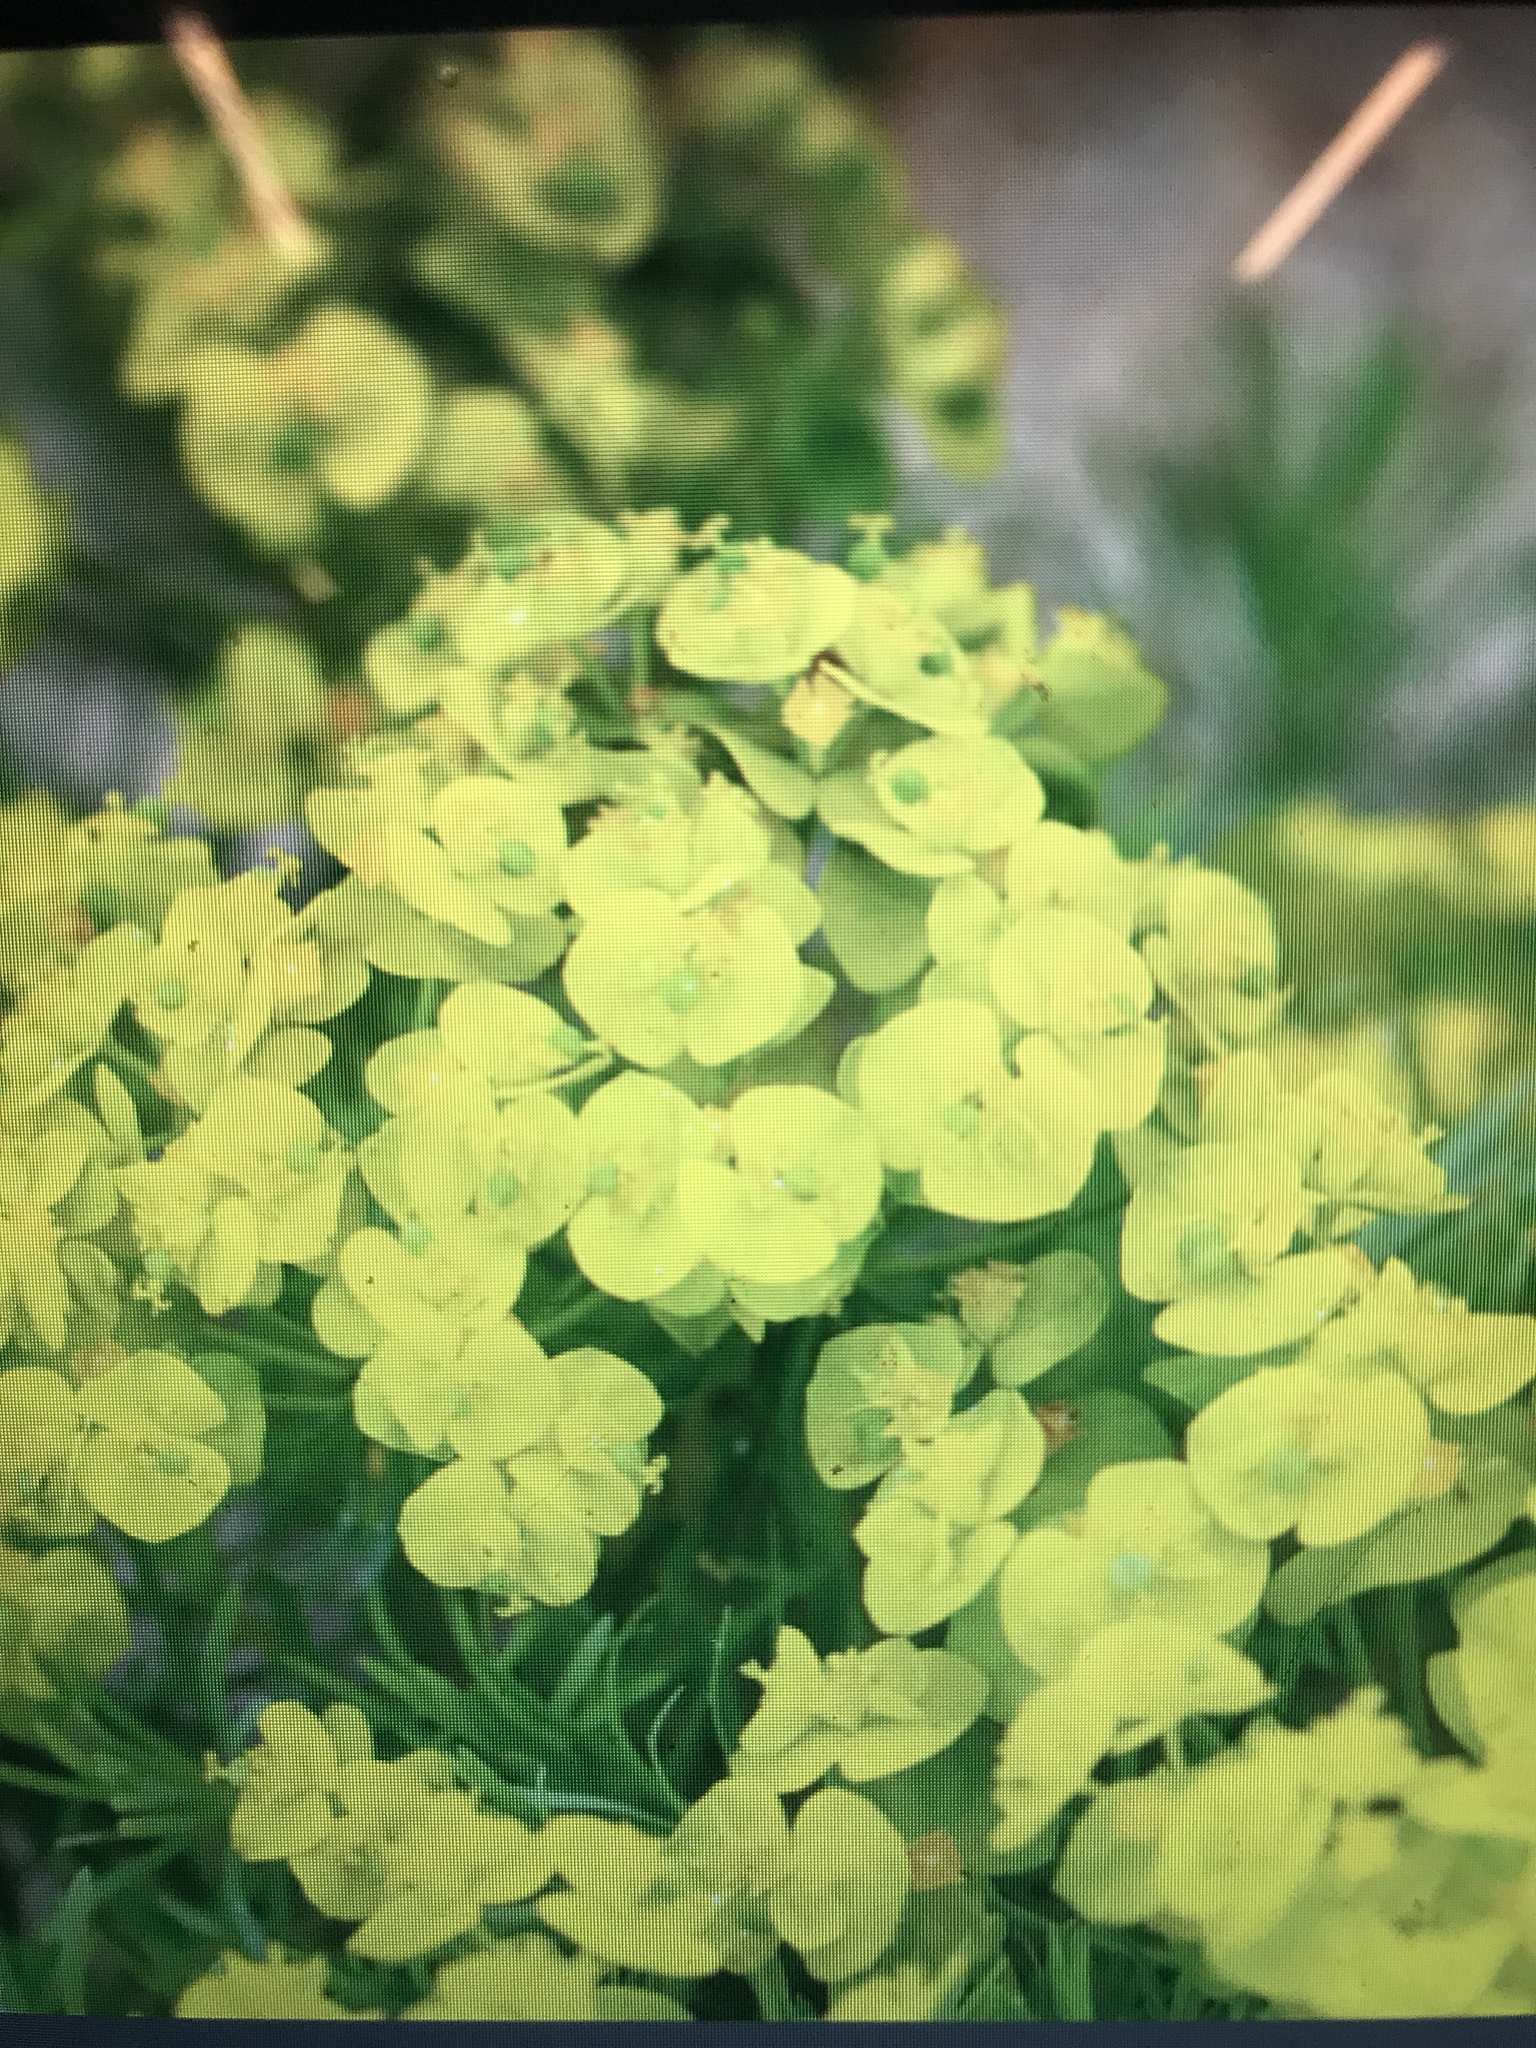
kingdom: Plantae
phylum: Tracheophyta
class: Magnoliopsida
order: Malpighiales
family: Euphorbiaceae
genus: Euphorbia
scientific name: Euphorbia cyparissias
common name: Cypress spurge
